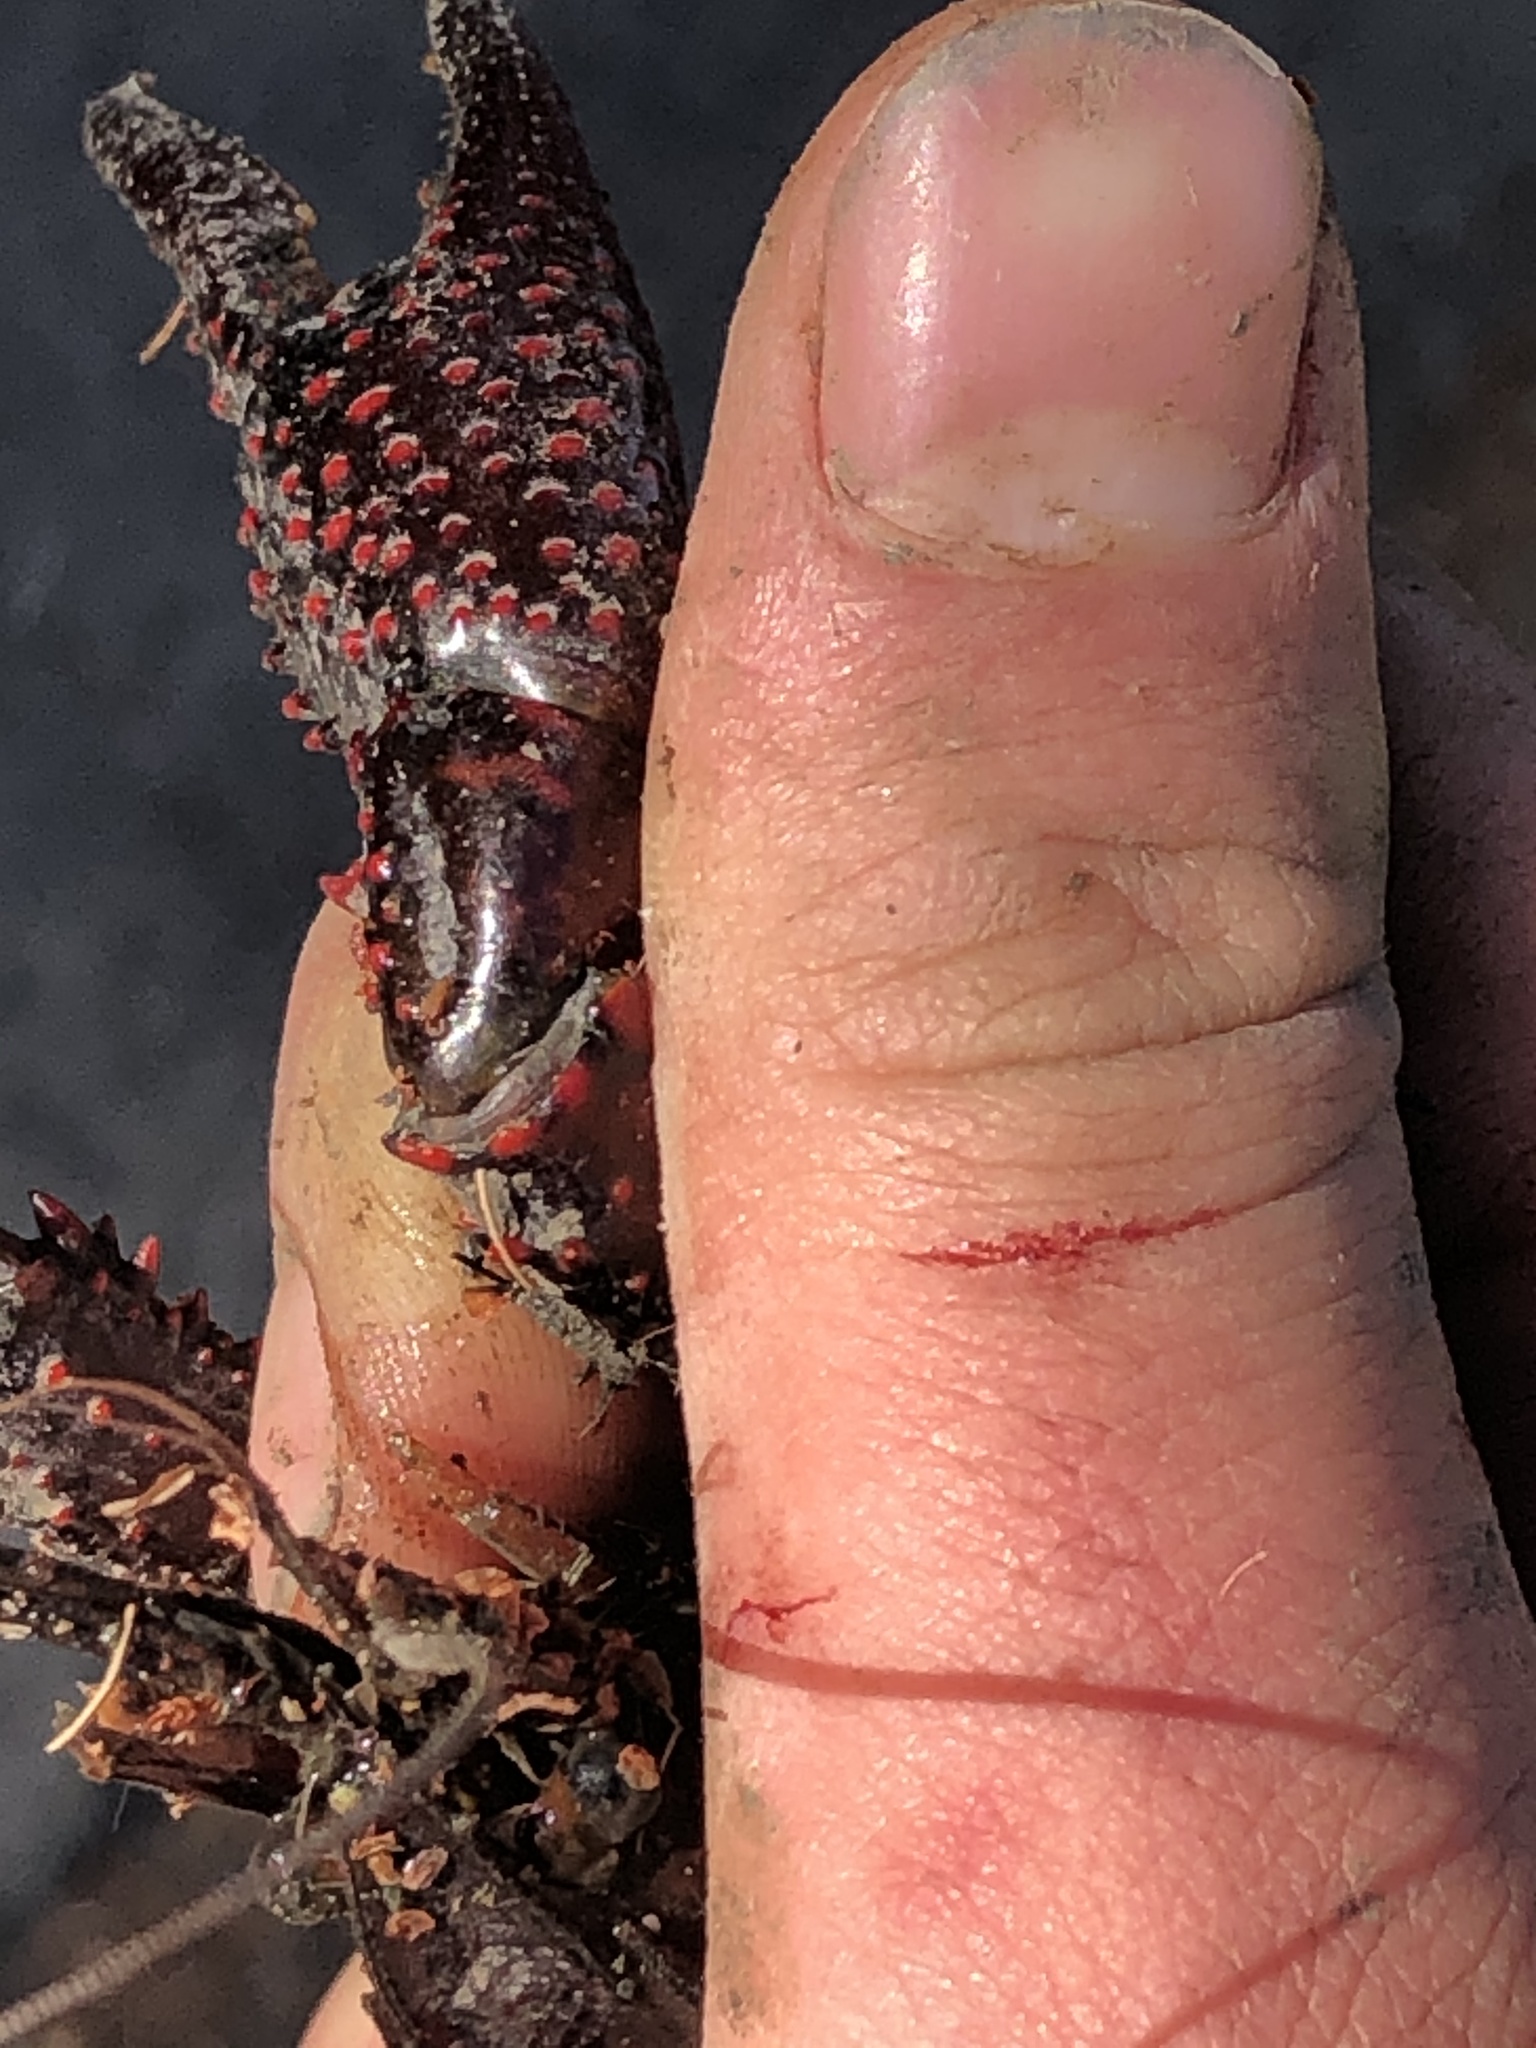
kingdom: Animalia
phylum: Arthropoda
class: Malacostraca
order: Decapoda
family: Cambaridae
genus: Procambarus
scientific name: Procambarus clarkii
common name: Red swamp crayfish
